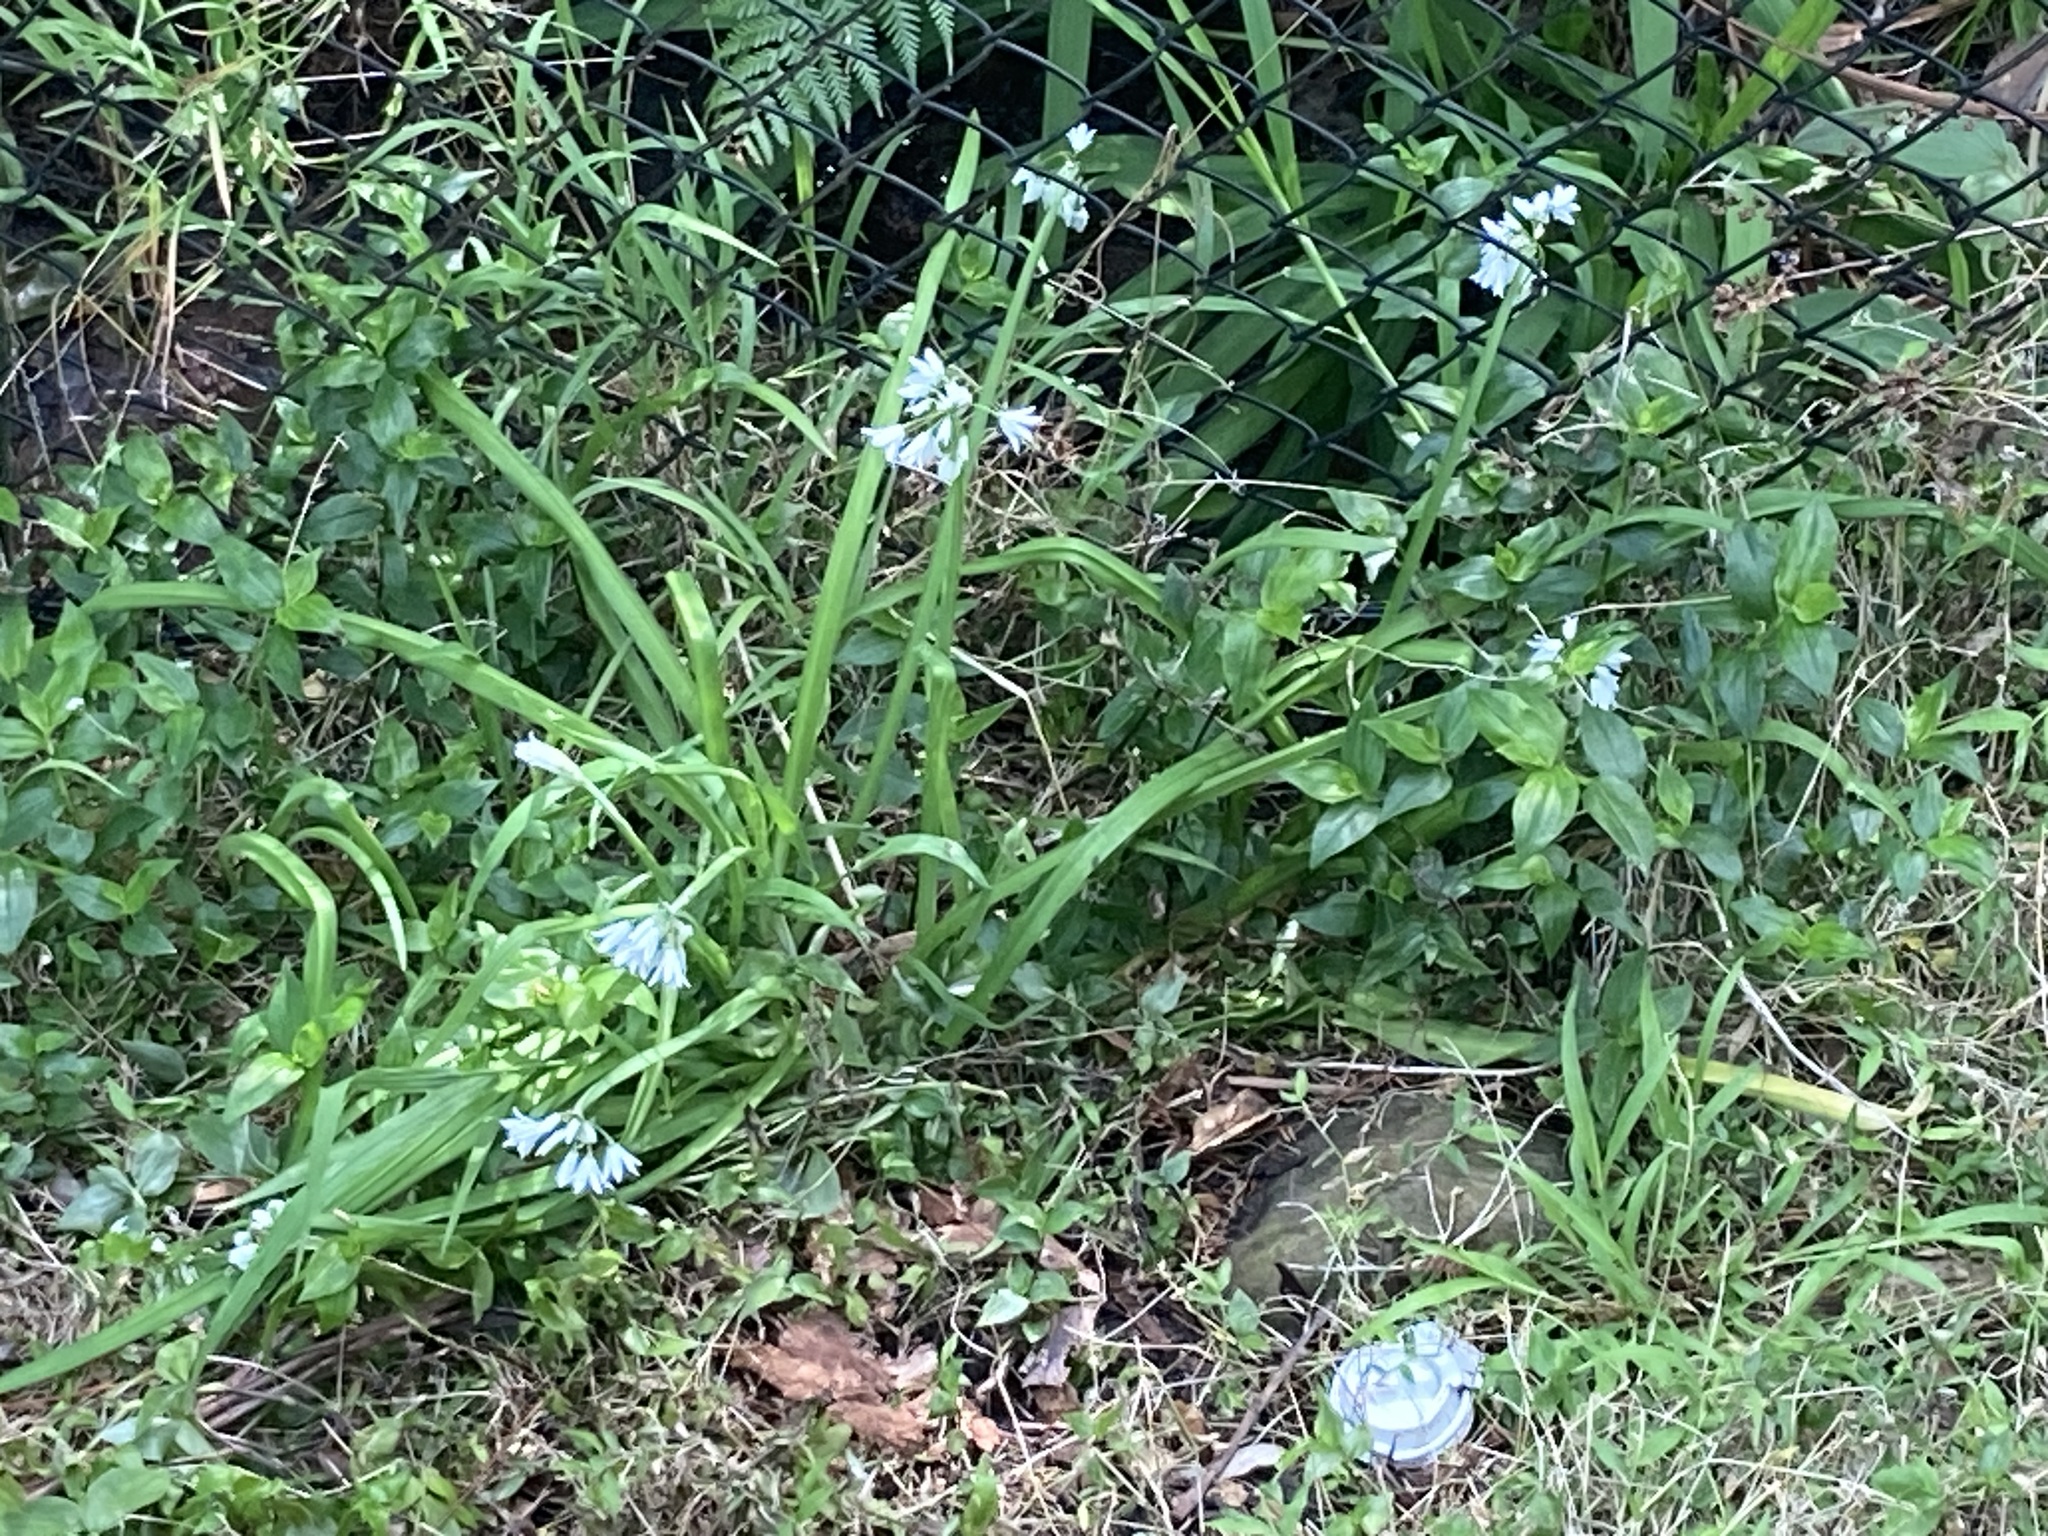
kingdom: Plantae
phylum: Tracheophyta
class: Liliopsida
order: Asparagales
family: Amaryllidaceae
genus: Allium
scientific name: Allium triquetrum
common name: Three-cornered garlic
